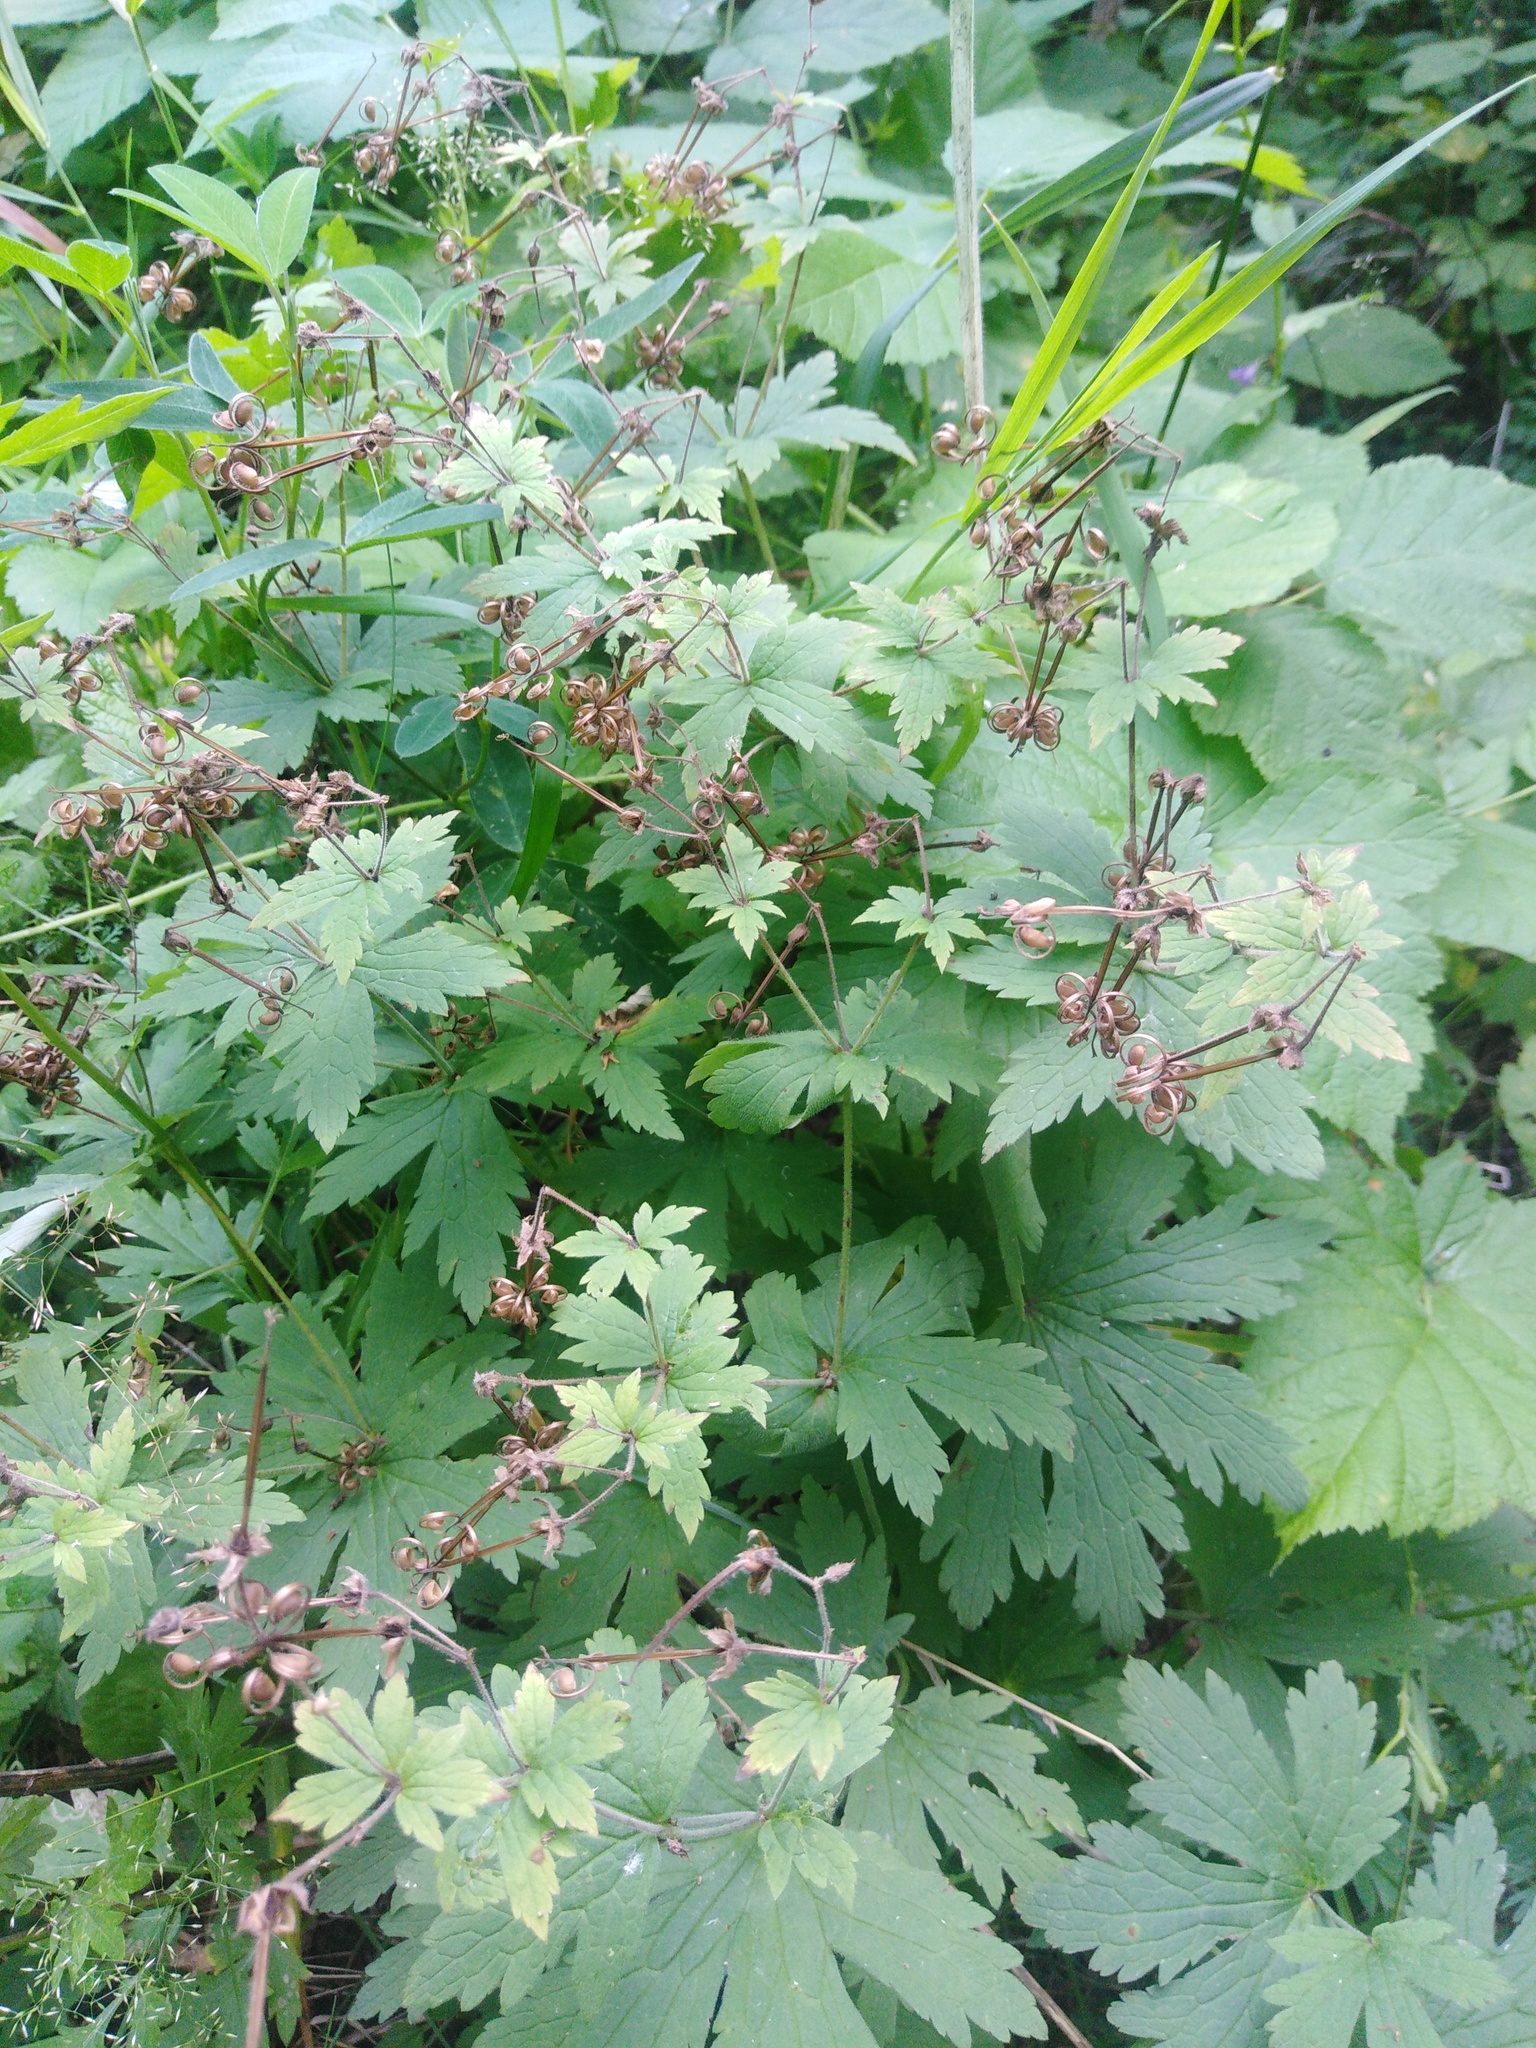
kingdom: Plantae
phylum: Tracheophyta
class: Magnoliopsida
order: Geraniales
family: Geraniaceae
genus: Geranium
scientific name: Geranium sylvaticum
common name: Wood crane's-bill
